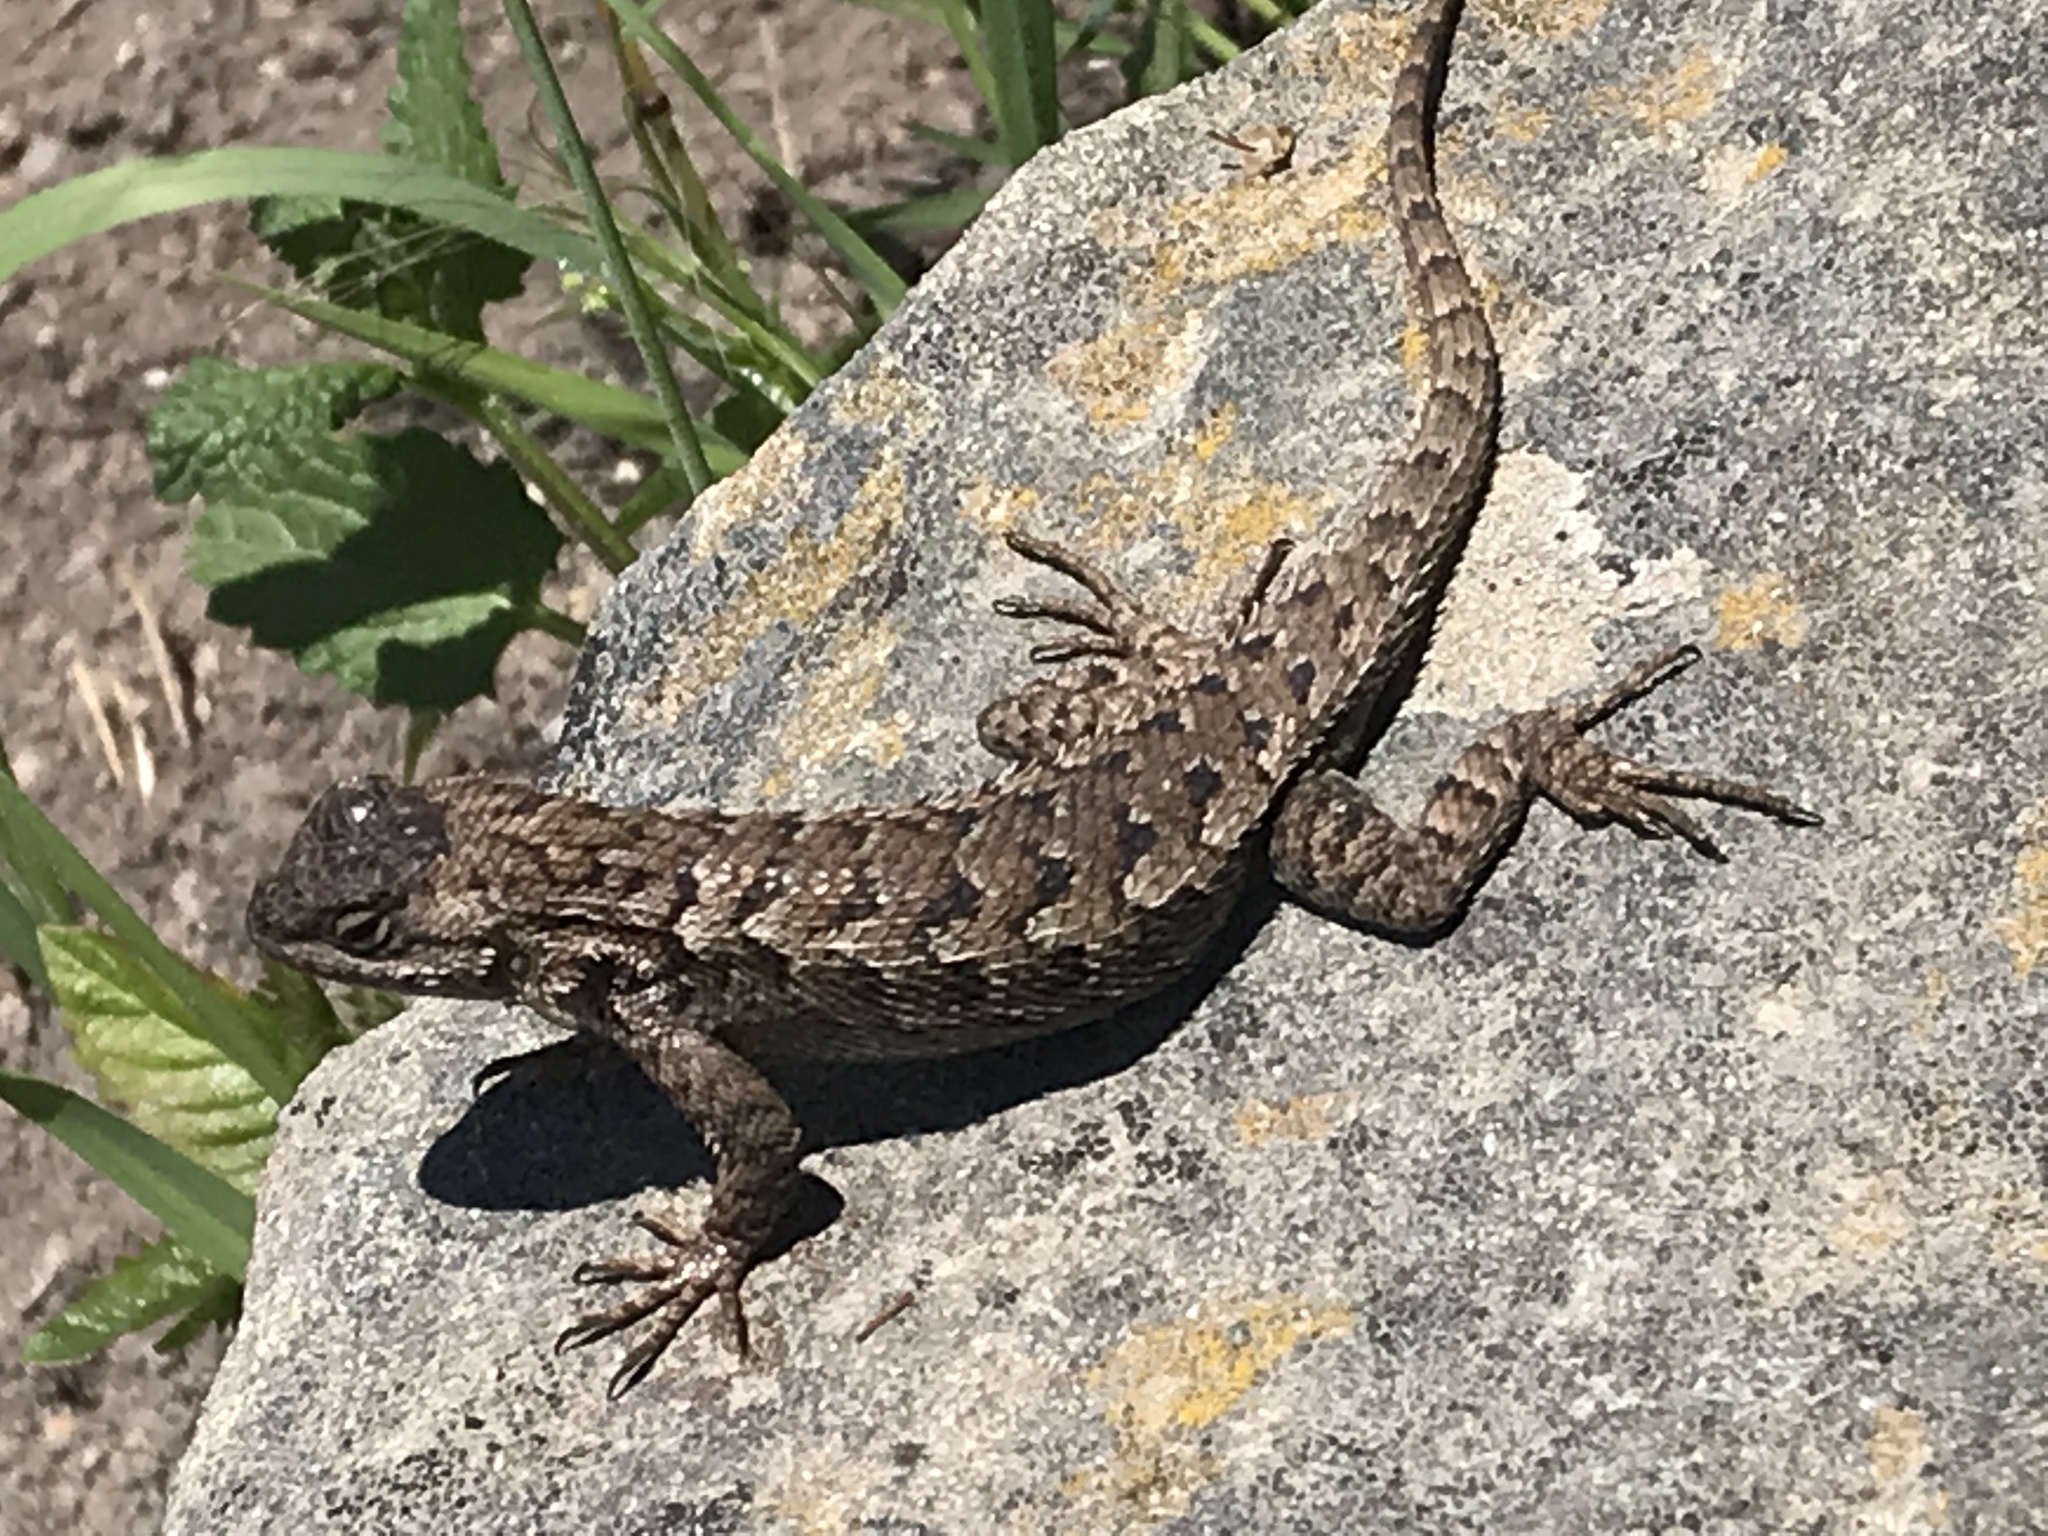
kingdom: Animalia
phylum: Chordata
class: Squamata
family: Phrynosomatidae
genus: Sceloporus
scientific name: Sceloporus occidentalis
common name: Western fence lizard
